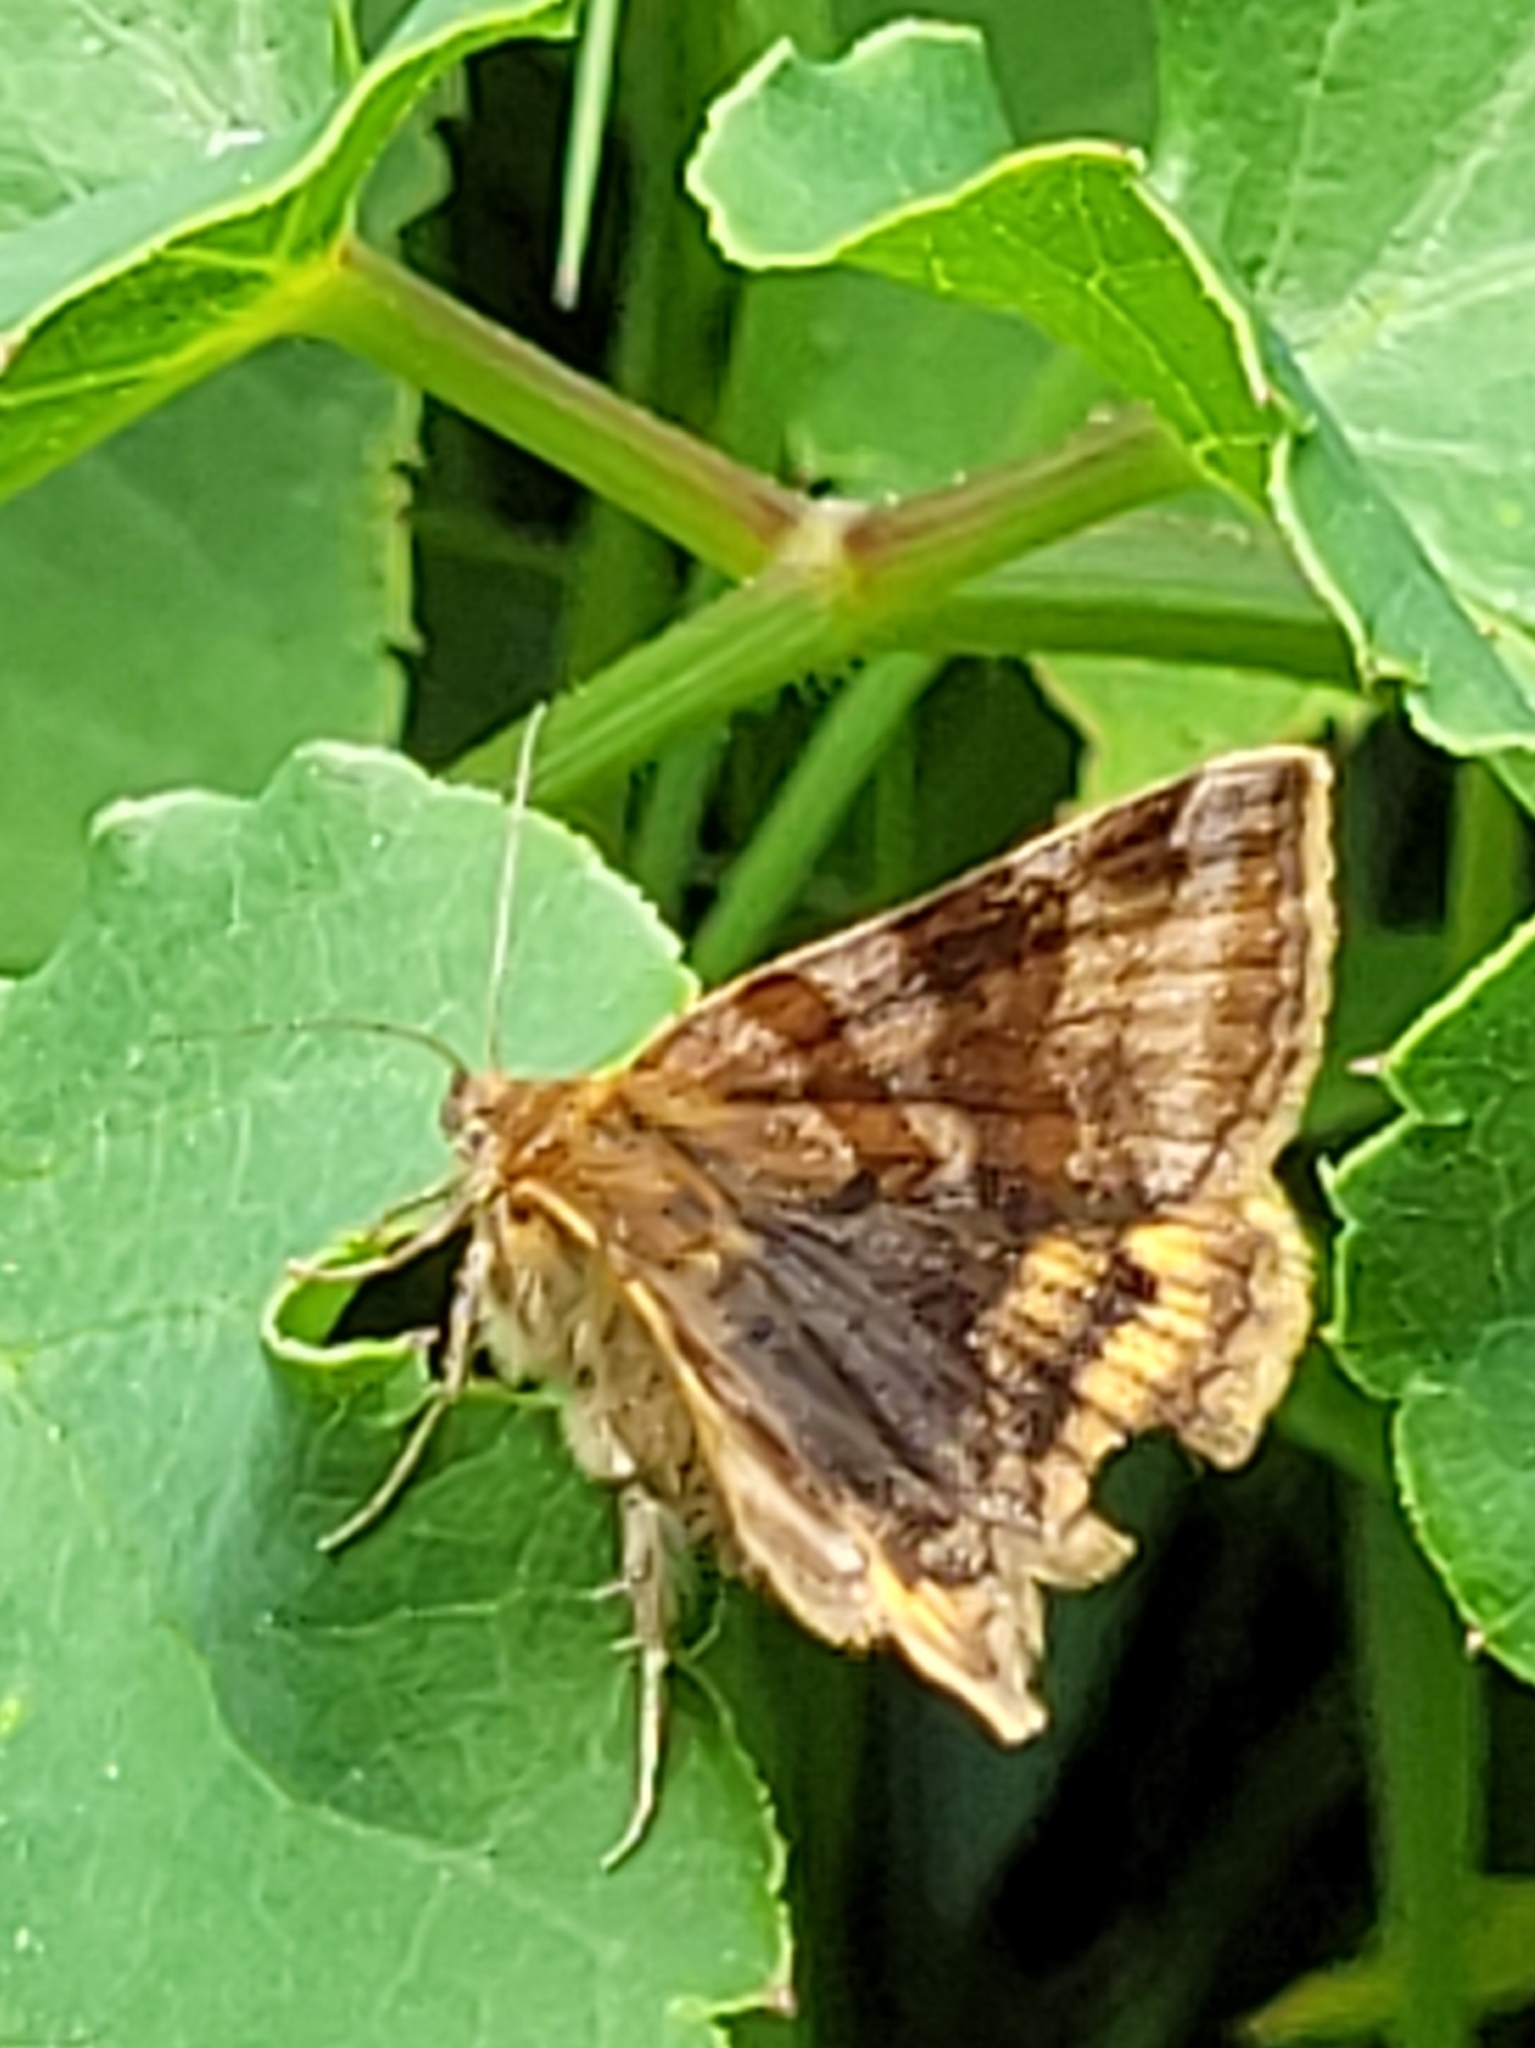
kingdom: Animalia
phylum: Arthropoda
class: Insecta
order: Lepidoptera
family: Erebidae
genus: Euclidia
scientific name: Euclidia glyphica
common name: Burnet companion
